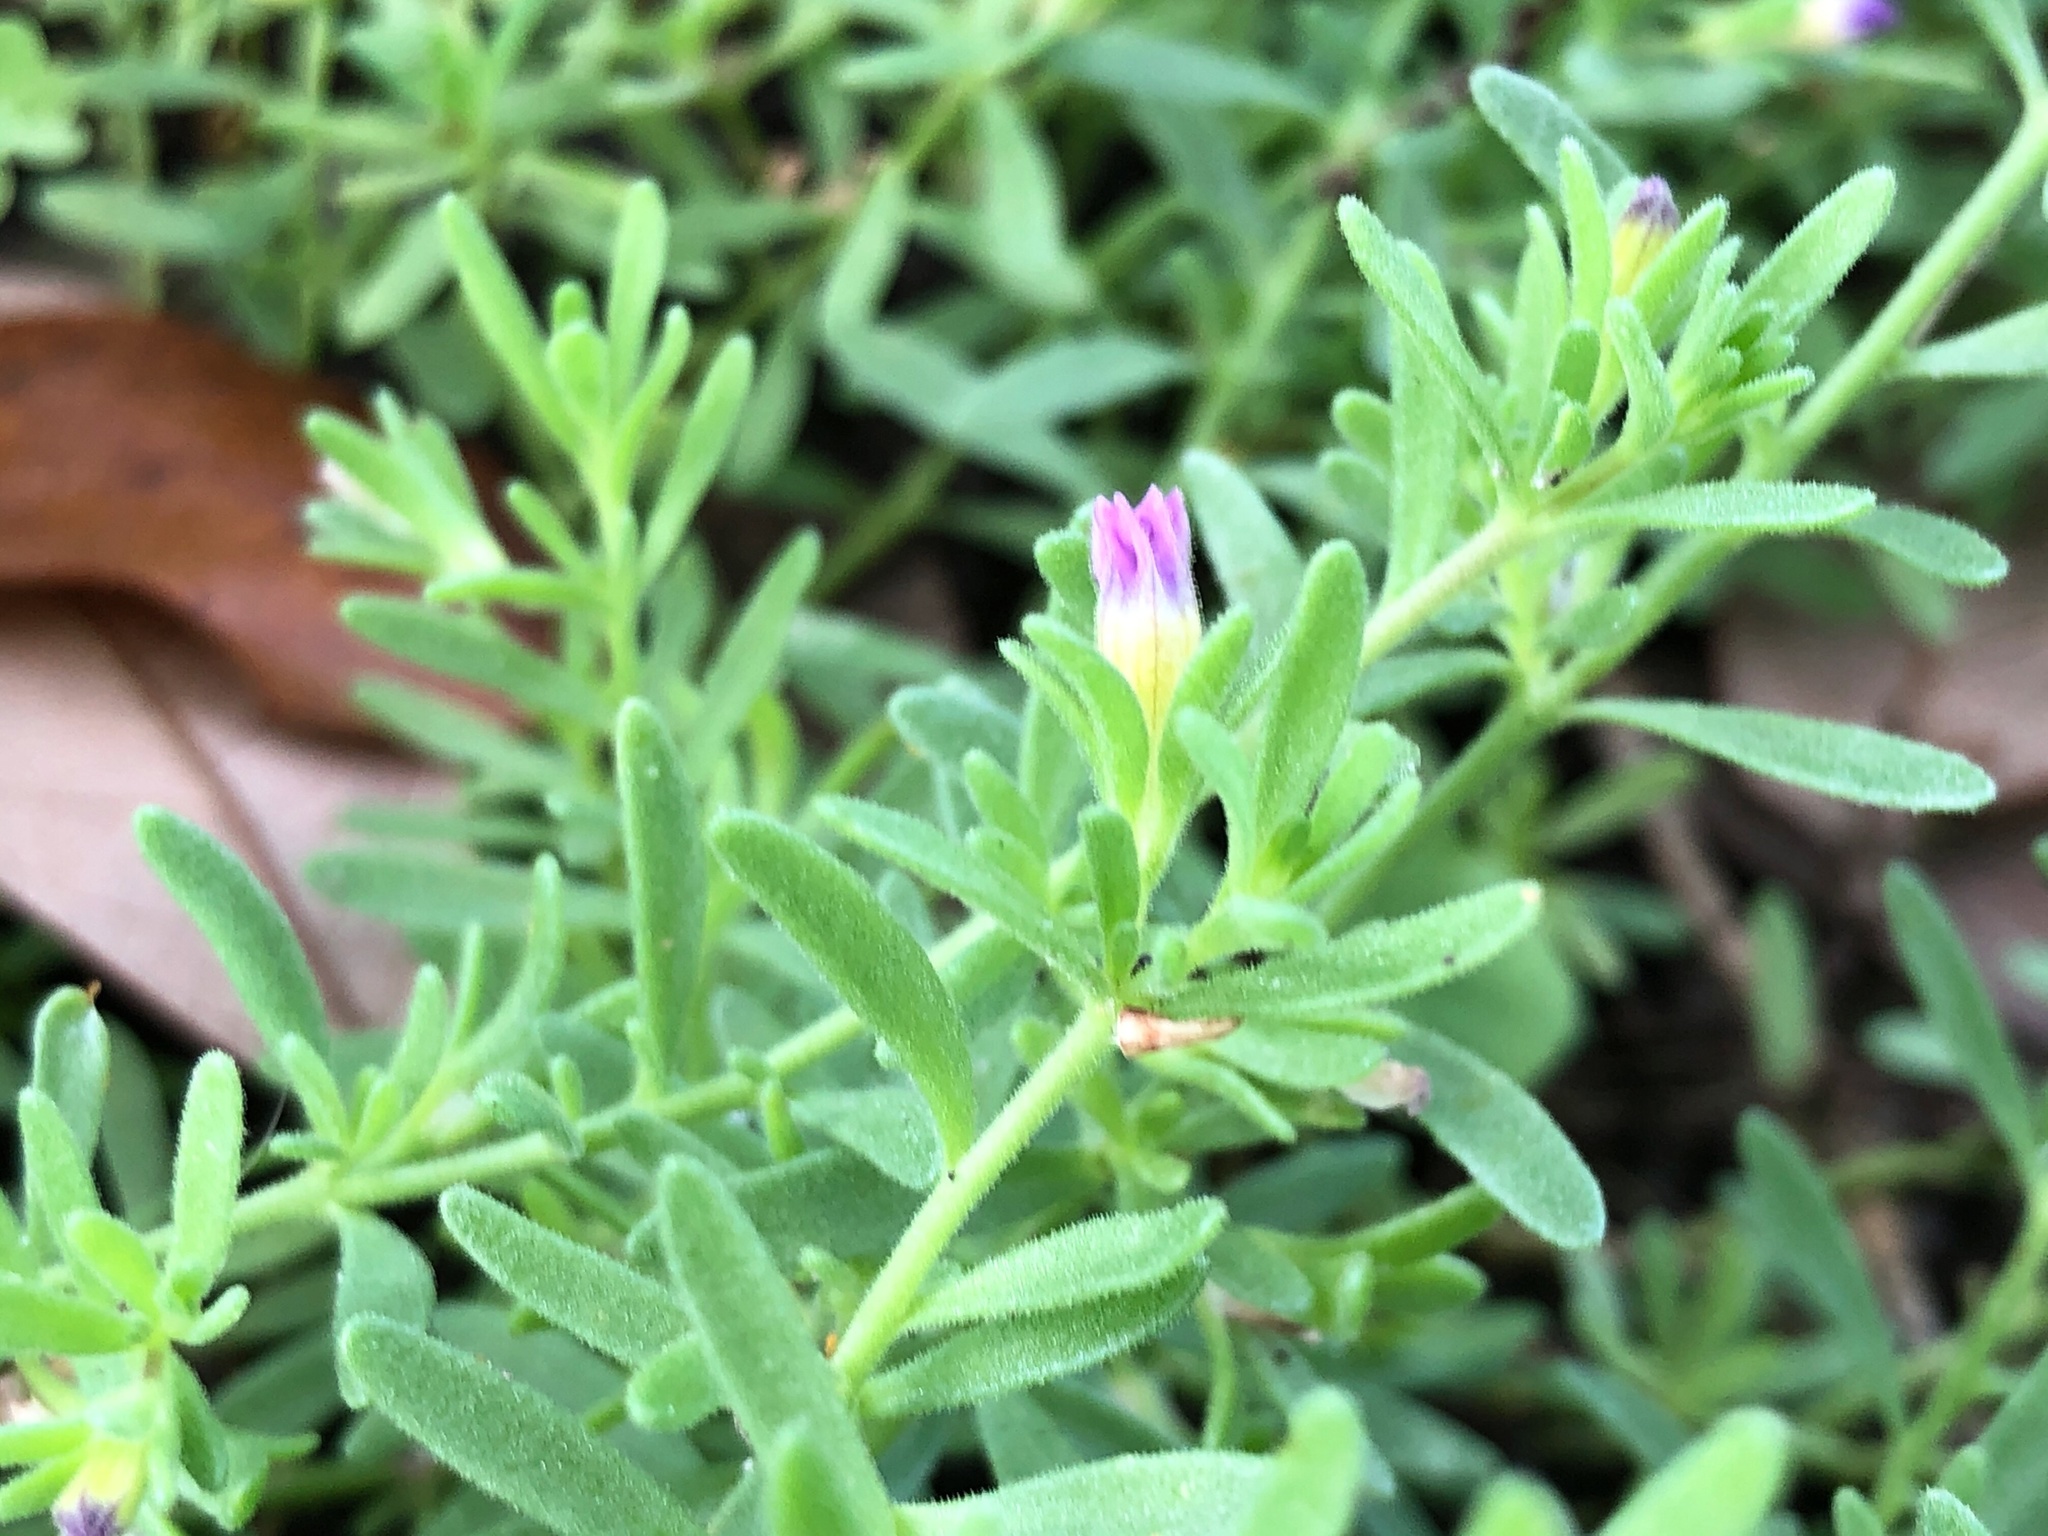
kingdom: Plantae
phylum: Tracheophyta
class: Magnoliopsida
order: Solanales
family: Solanaceae
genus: Calibrachoa
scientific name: Calibrachoa parviflora
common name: Seaside petunia
